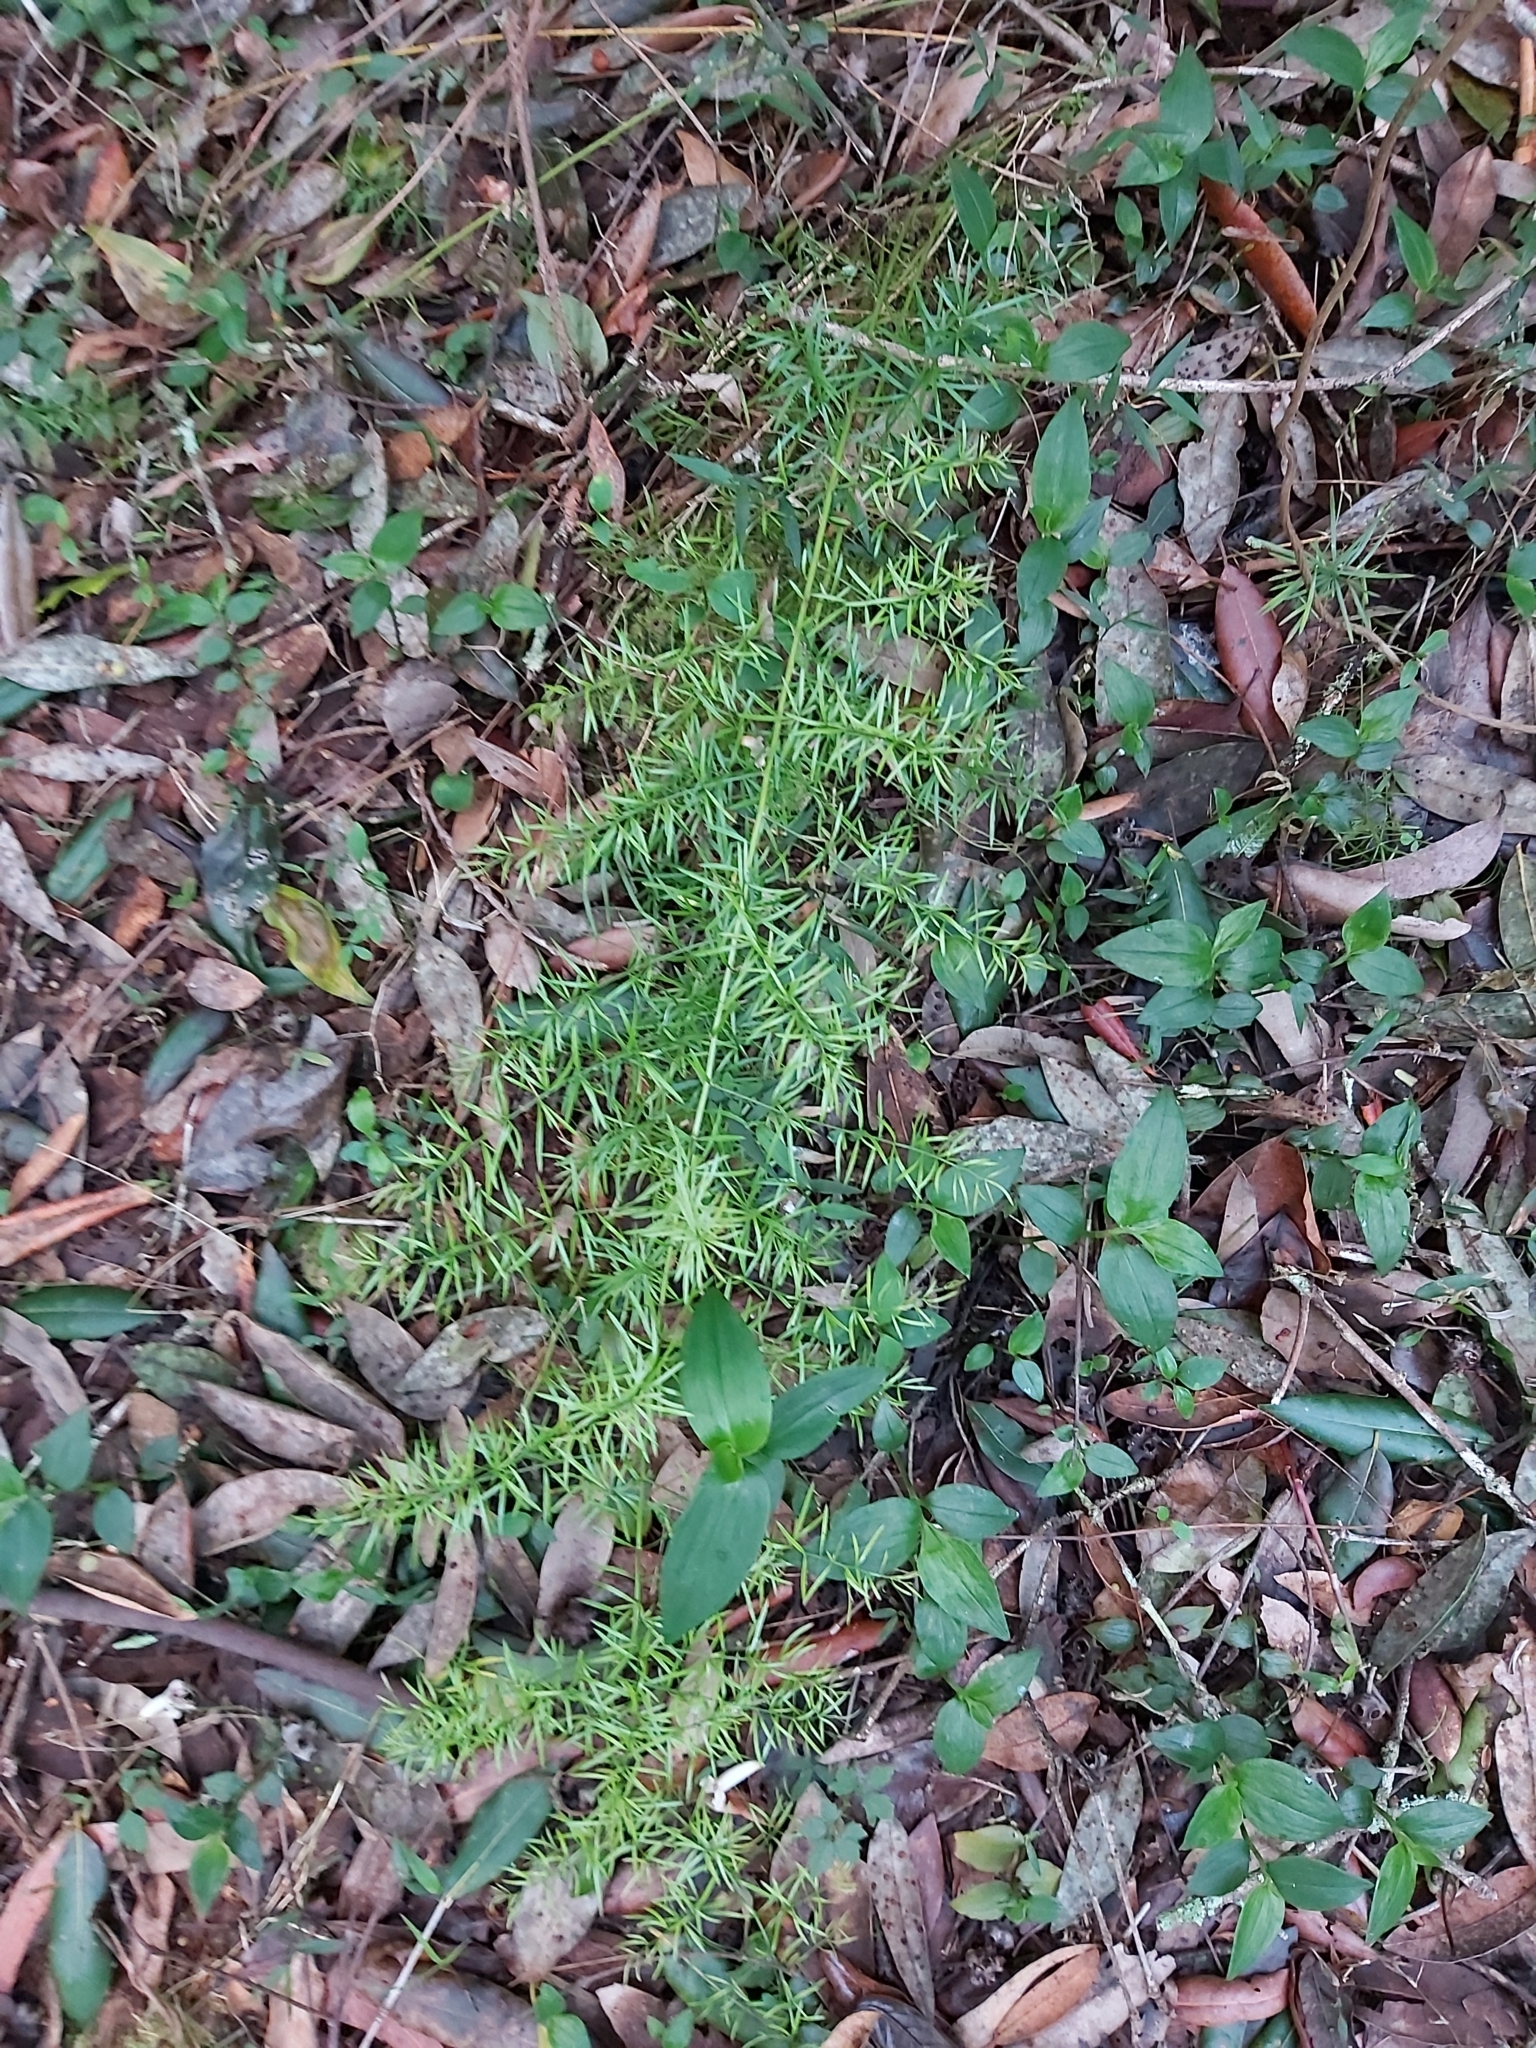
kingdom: Plantae
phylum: Tracheophyta
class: Liliopsida
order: Asparagales
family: Asparagaceae
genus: Asparagus
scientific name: Asparagus aethiopicus
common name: Sprenger's asparagus fern
